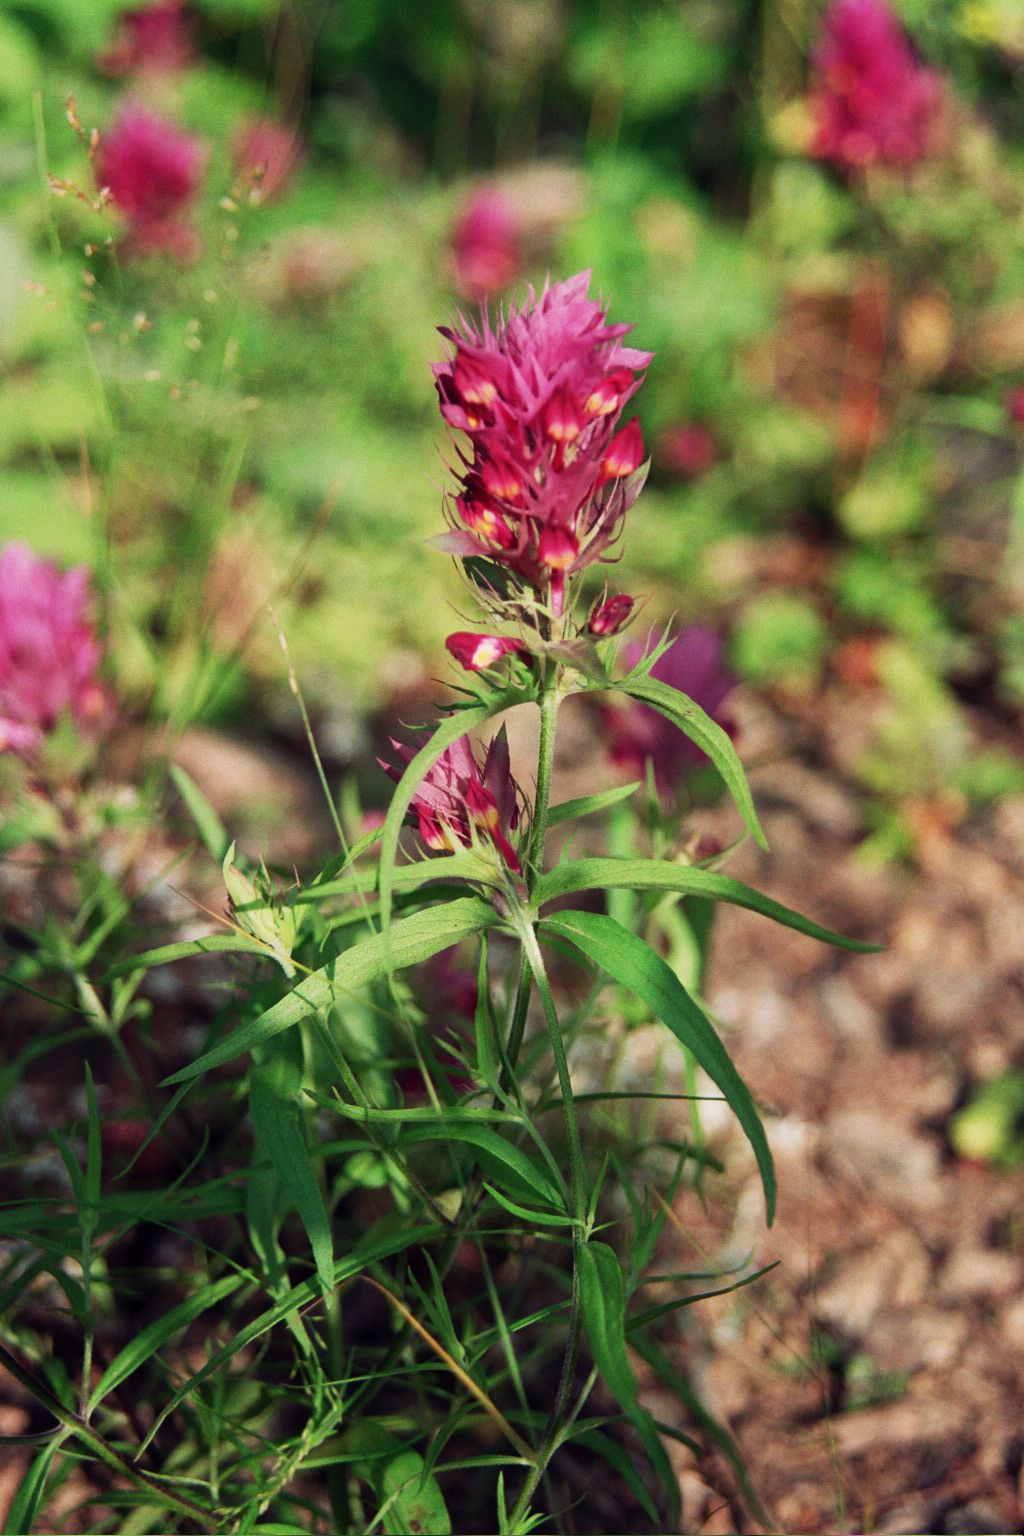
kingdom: Plantae
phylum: Tracheophyta
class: Magnoliopsida
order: Lamiales
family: Orobanchaceae
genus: Melampyrum
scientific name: Melampyrum arvense
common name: Field cow-wheat
